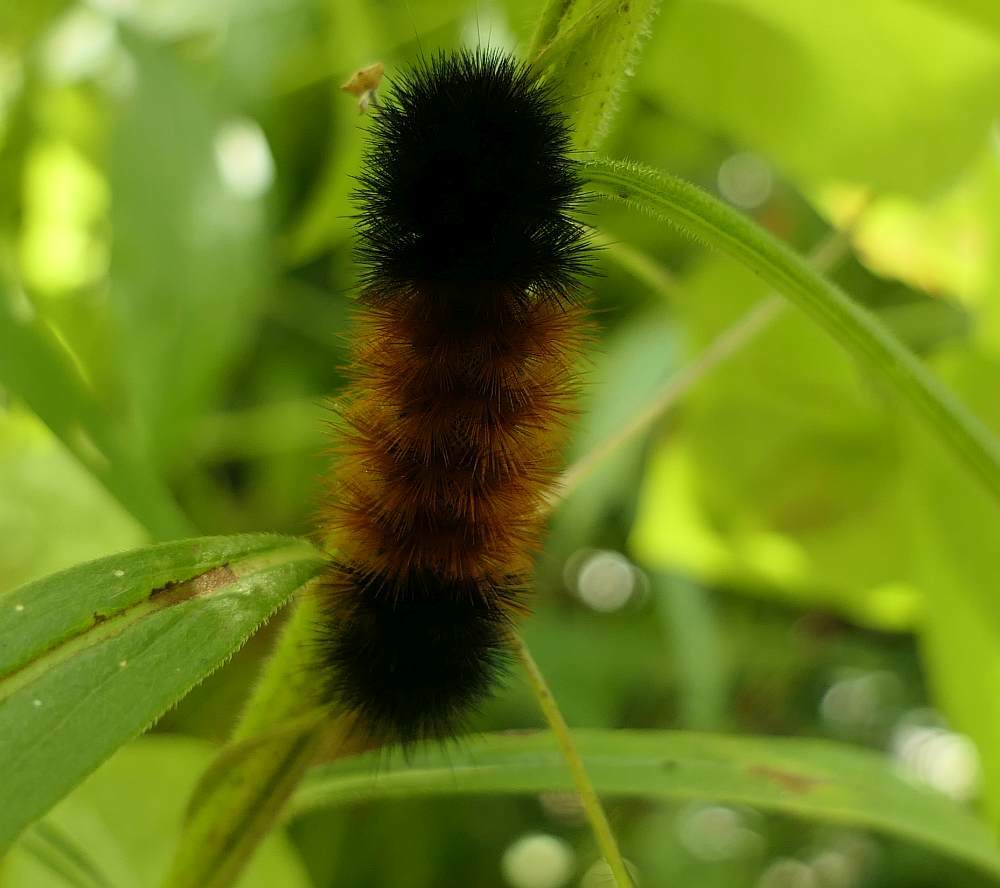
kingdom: Animalia
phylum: Arthropoda
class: Insecta
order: Lepidoptera
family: Erebidae
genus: Pyrrharctia
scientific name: Pyrrharctia isabella
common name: Isabella tiger moth
